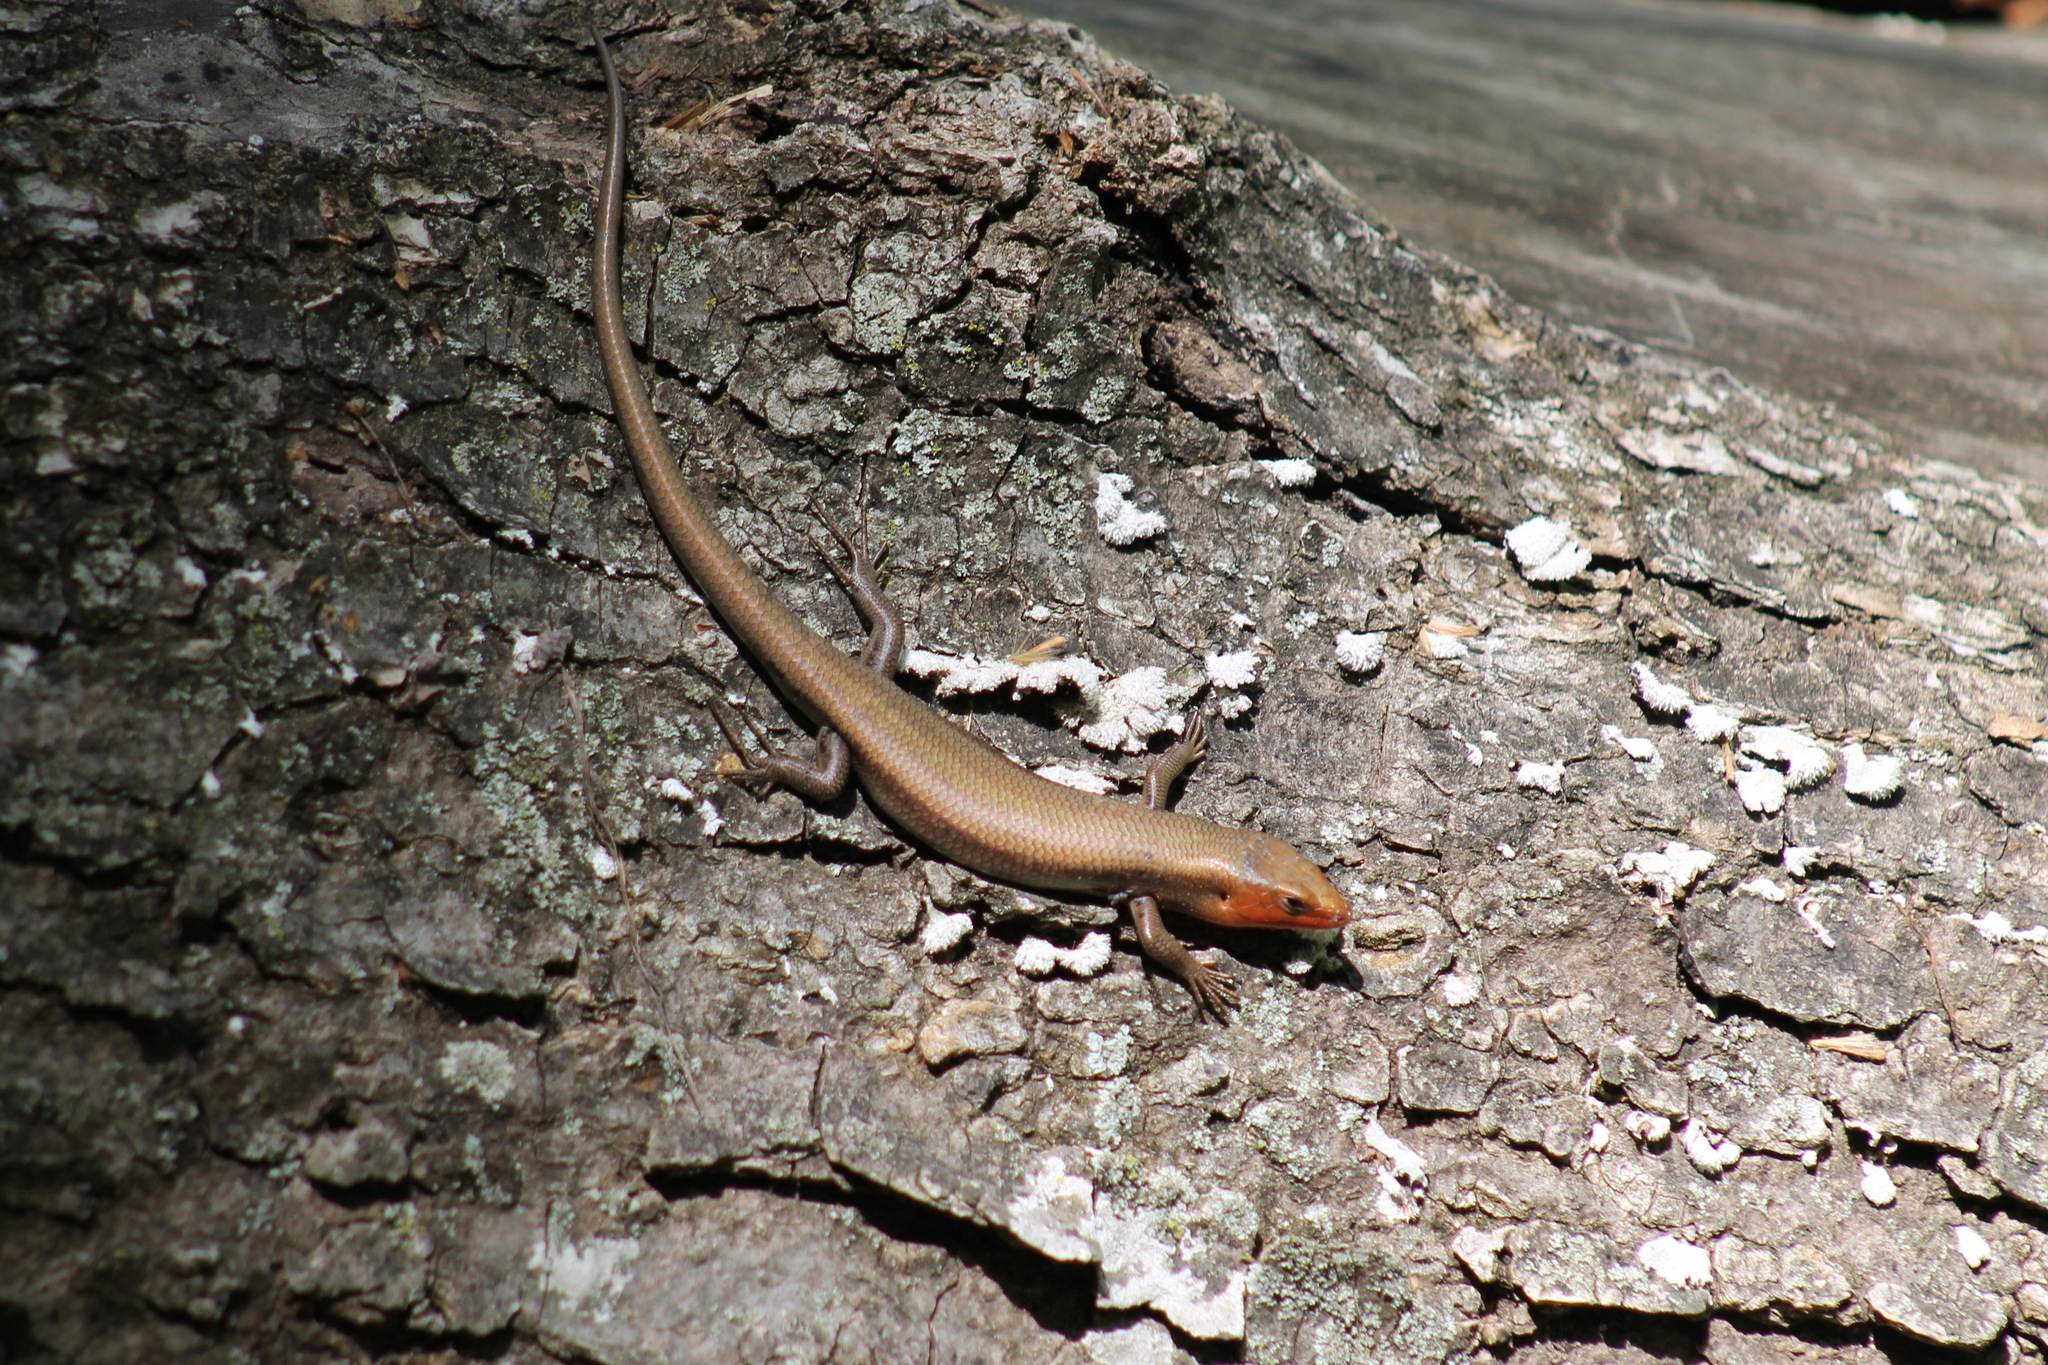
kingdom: Animalia
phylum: Chordata
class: Squamata
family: Scincidae
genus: Plestiodon
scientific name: Plestiodon fasciatus
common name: Five-lined skink
